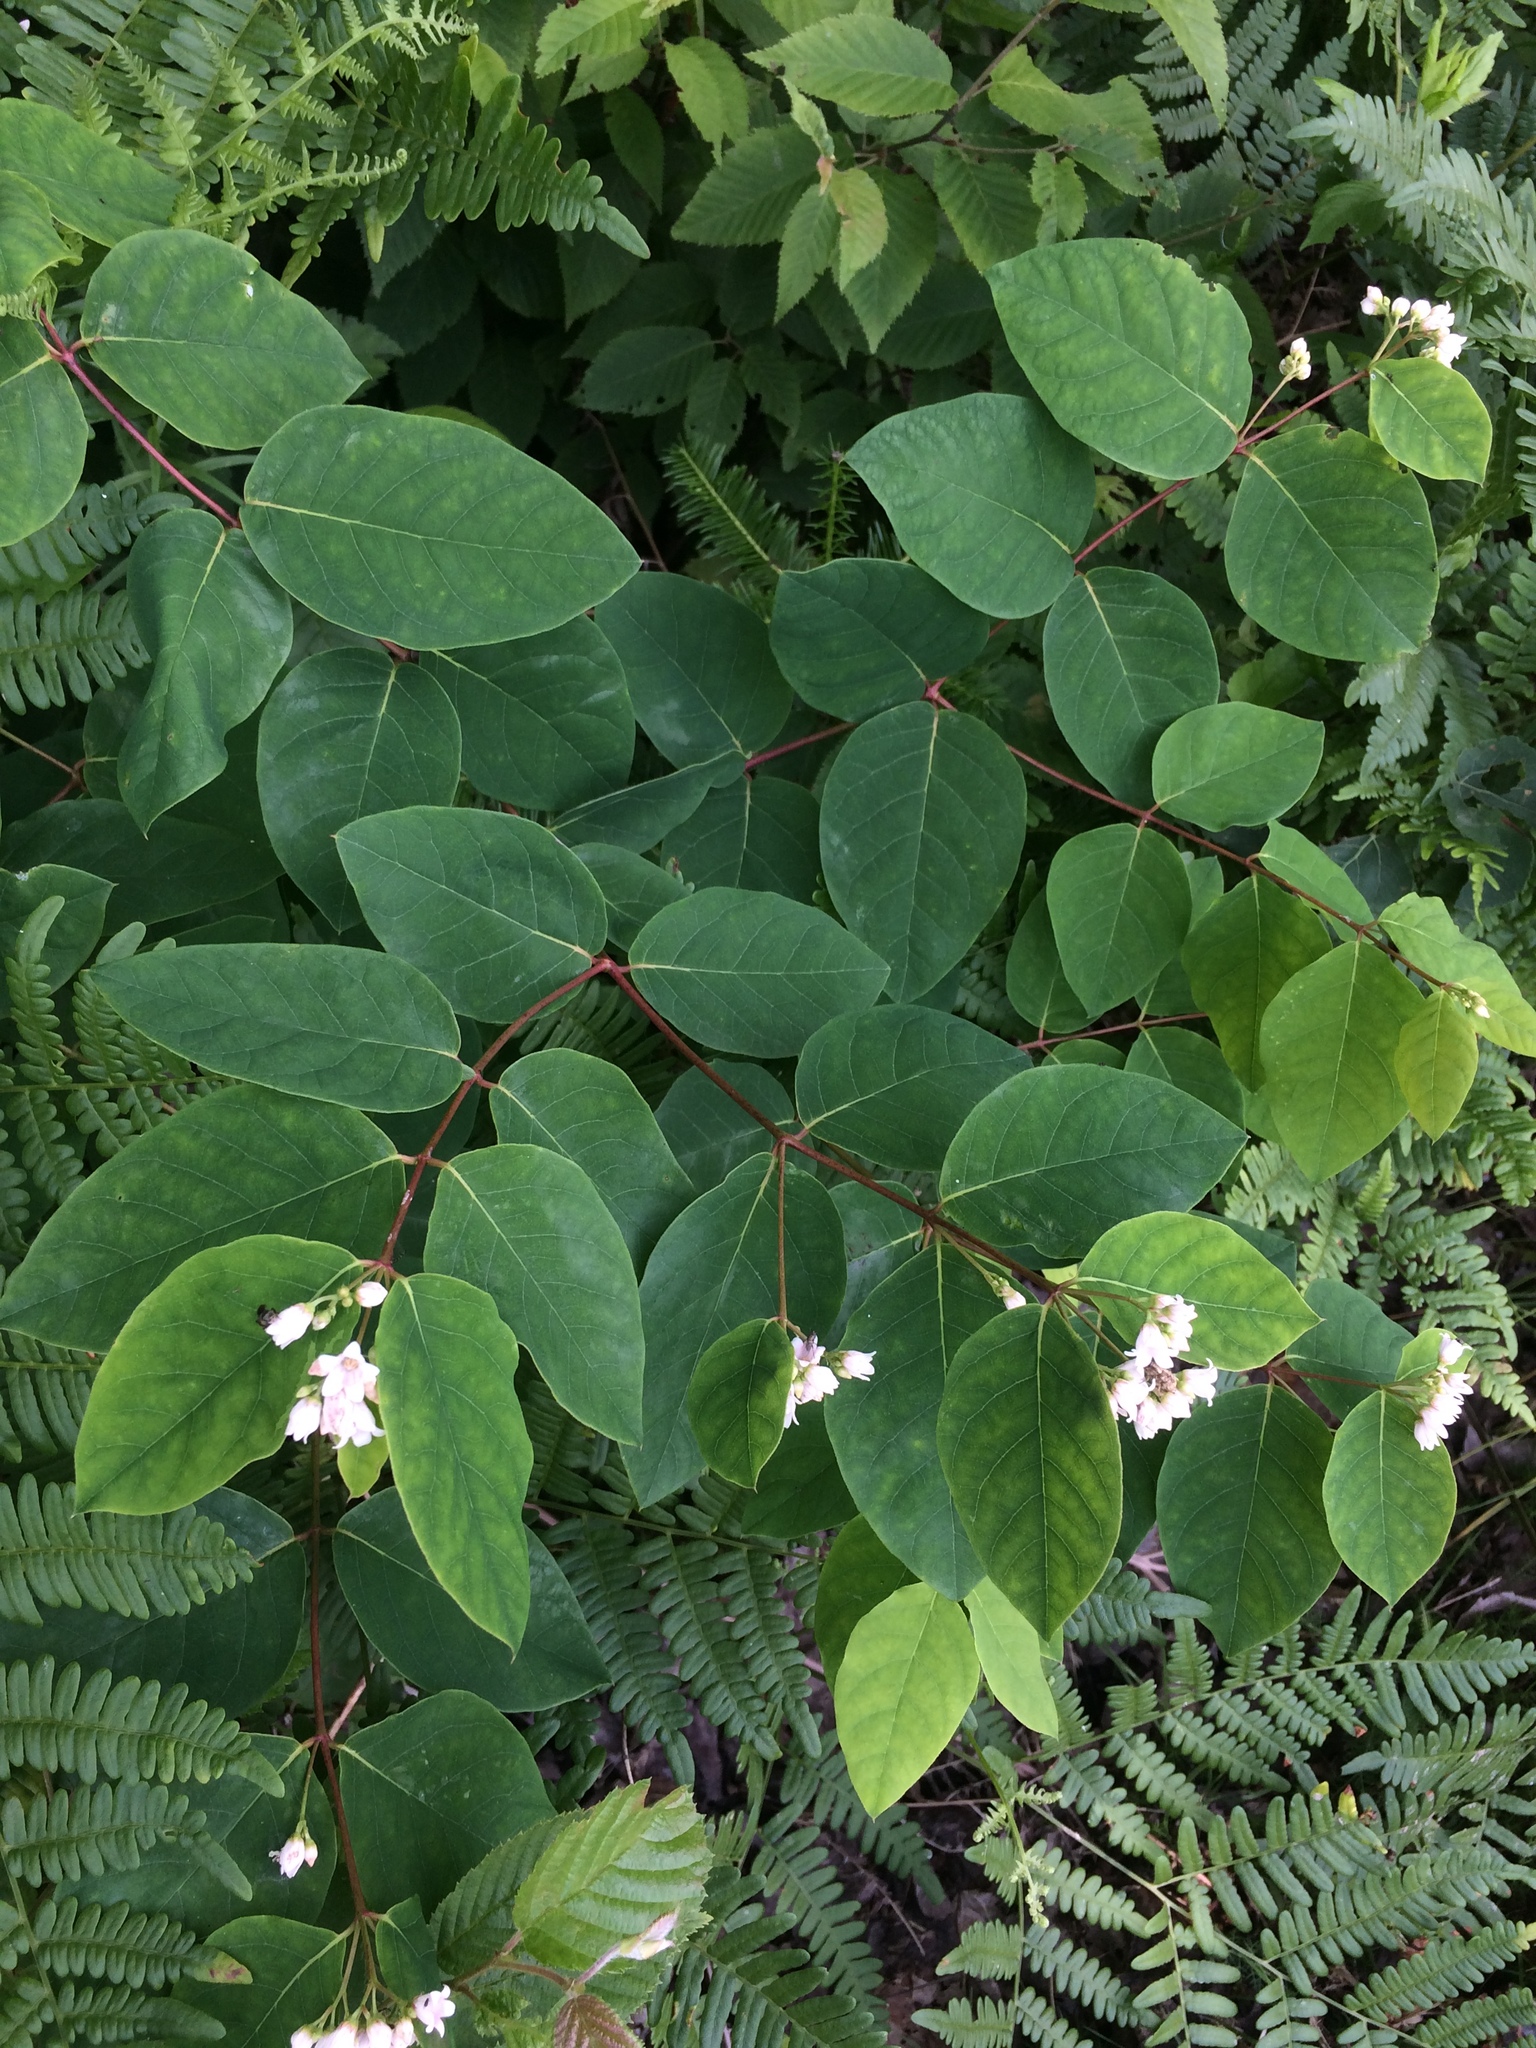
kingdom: Plantae
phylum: Tracheophyta
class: Magnoliopsida
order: Gentianales
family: Apocynaceae
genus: Apocynum
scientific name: Apocynum androsaemifolium
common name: Spreading dogbane
